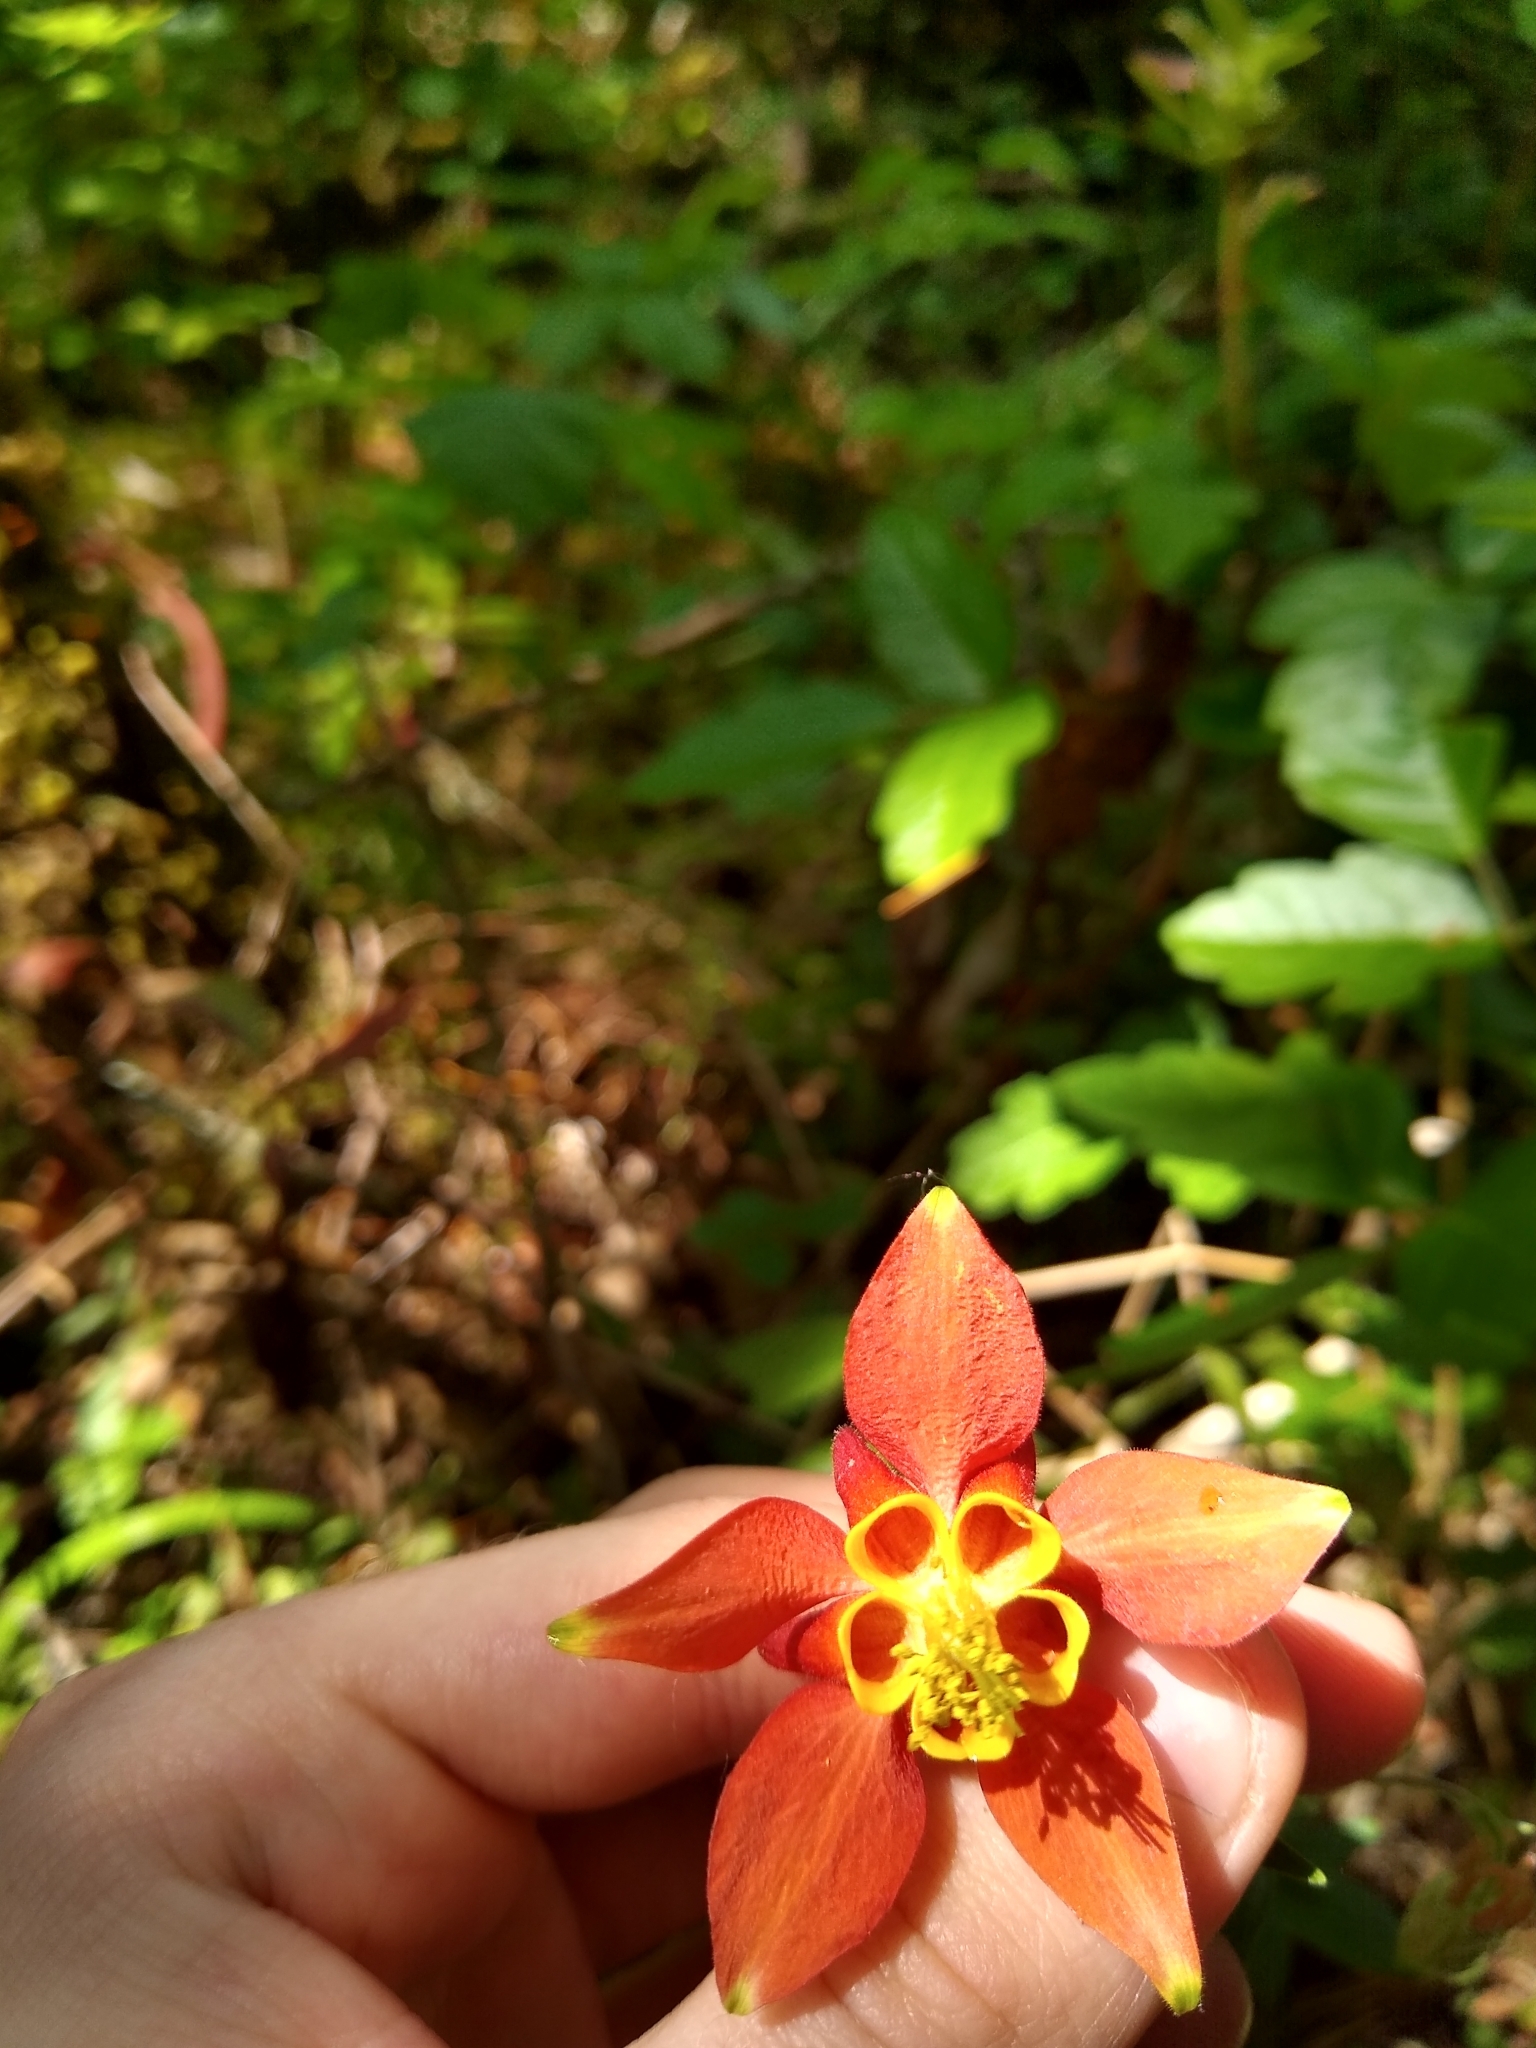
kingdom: Plantae
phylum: Tracheophyta
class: Magnoliopsida
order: Ranunculales
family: Ranunculaceae
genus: Aquilegia
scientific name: Aquilegia formosa
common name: Sitka columbine
